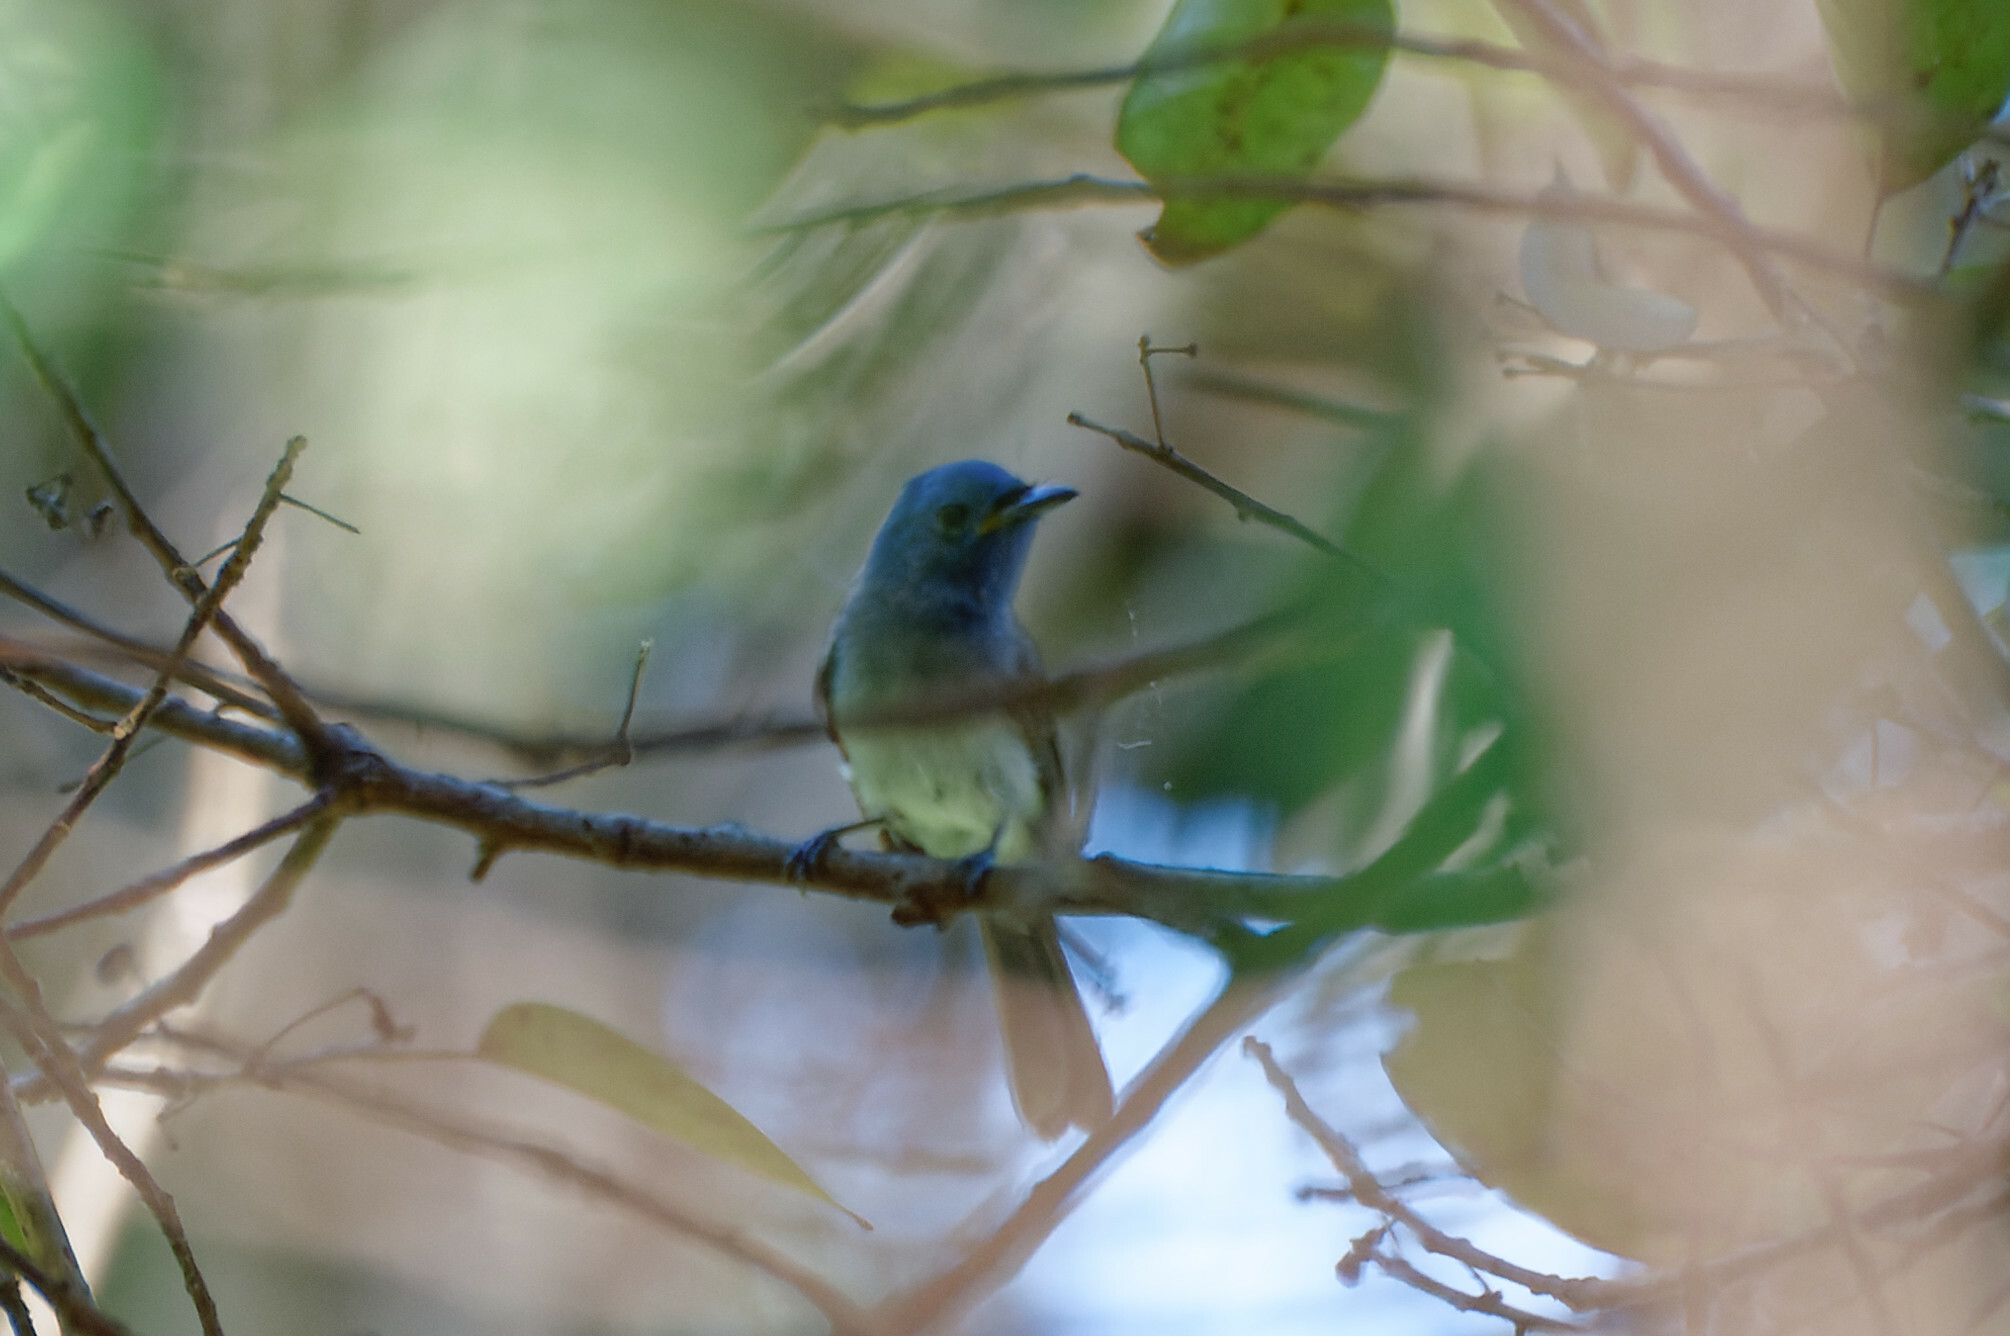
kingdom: Animalia
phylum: Chordata
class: Aves
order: Passeriformes
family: Monarchidae
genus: Hypothymis
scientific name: Hypothymis azurea
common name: Black-naped monarch
